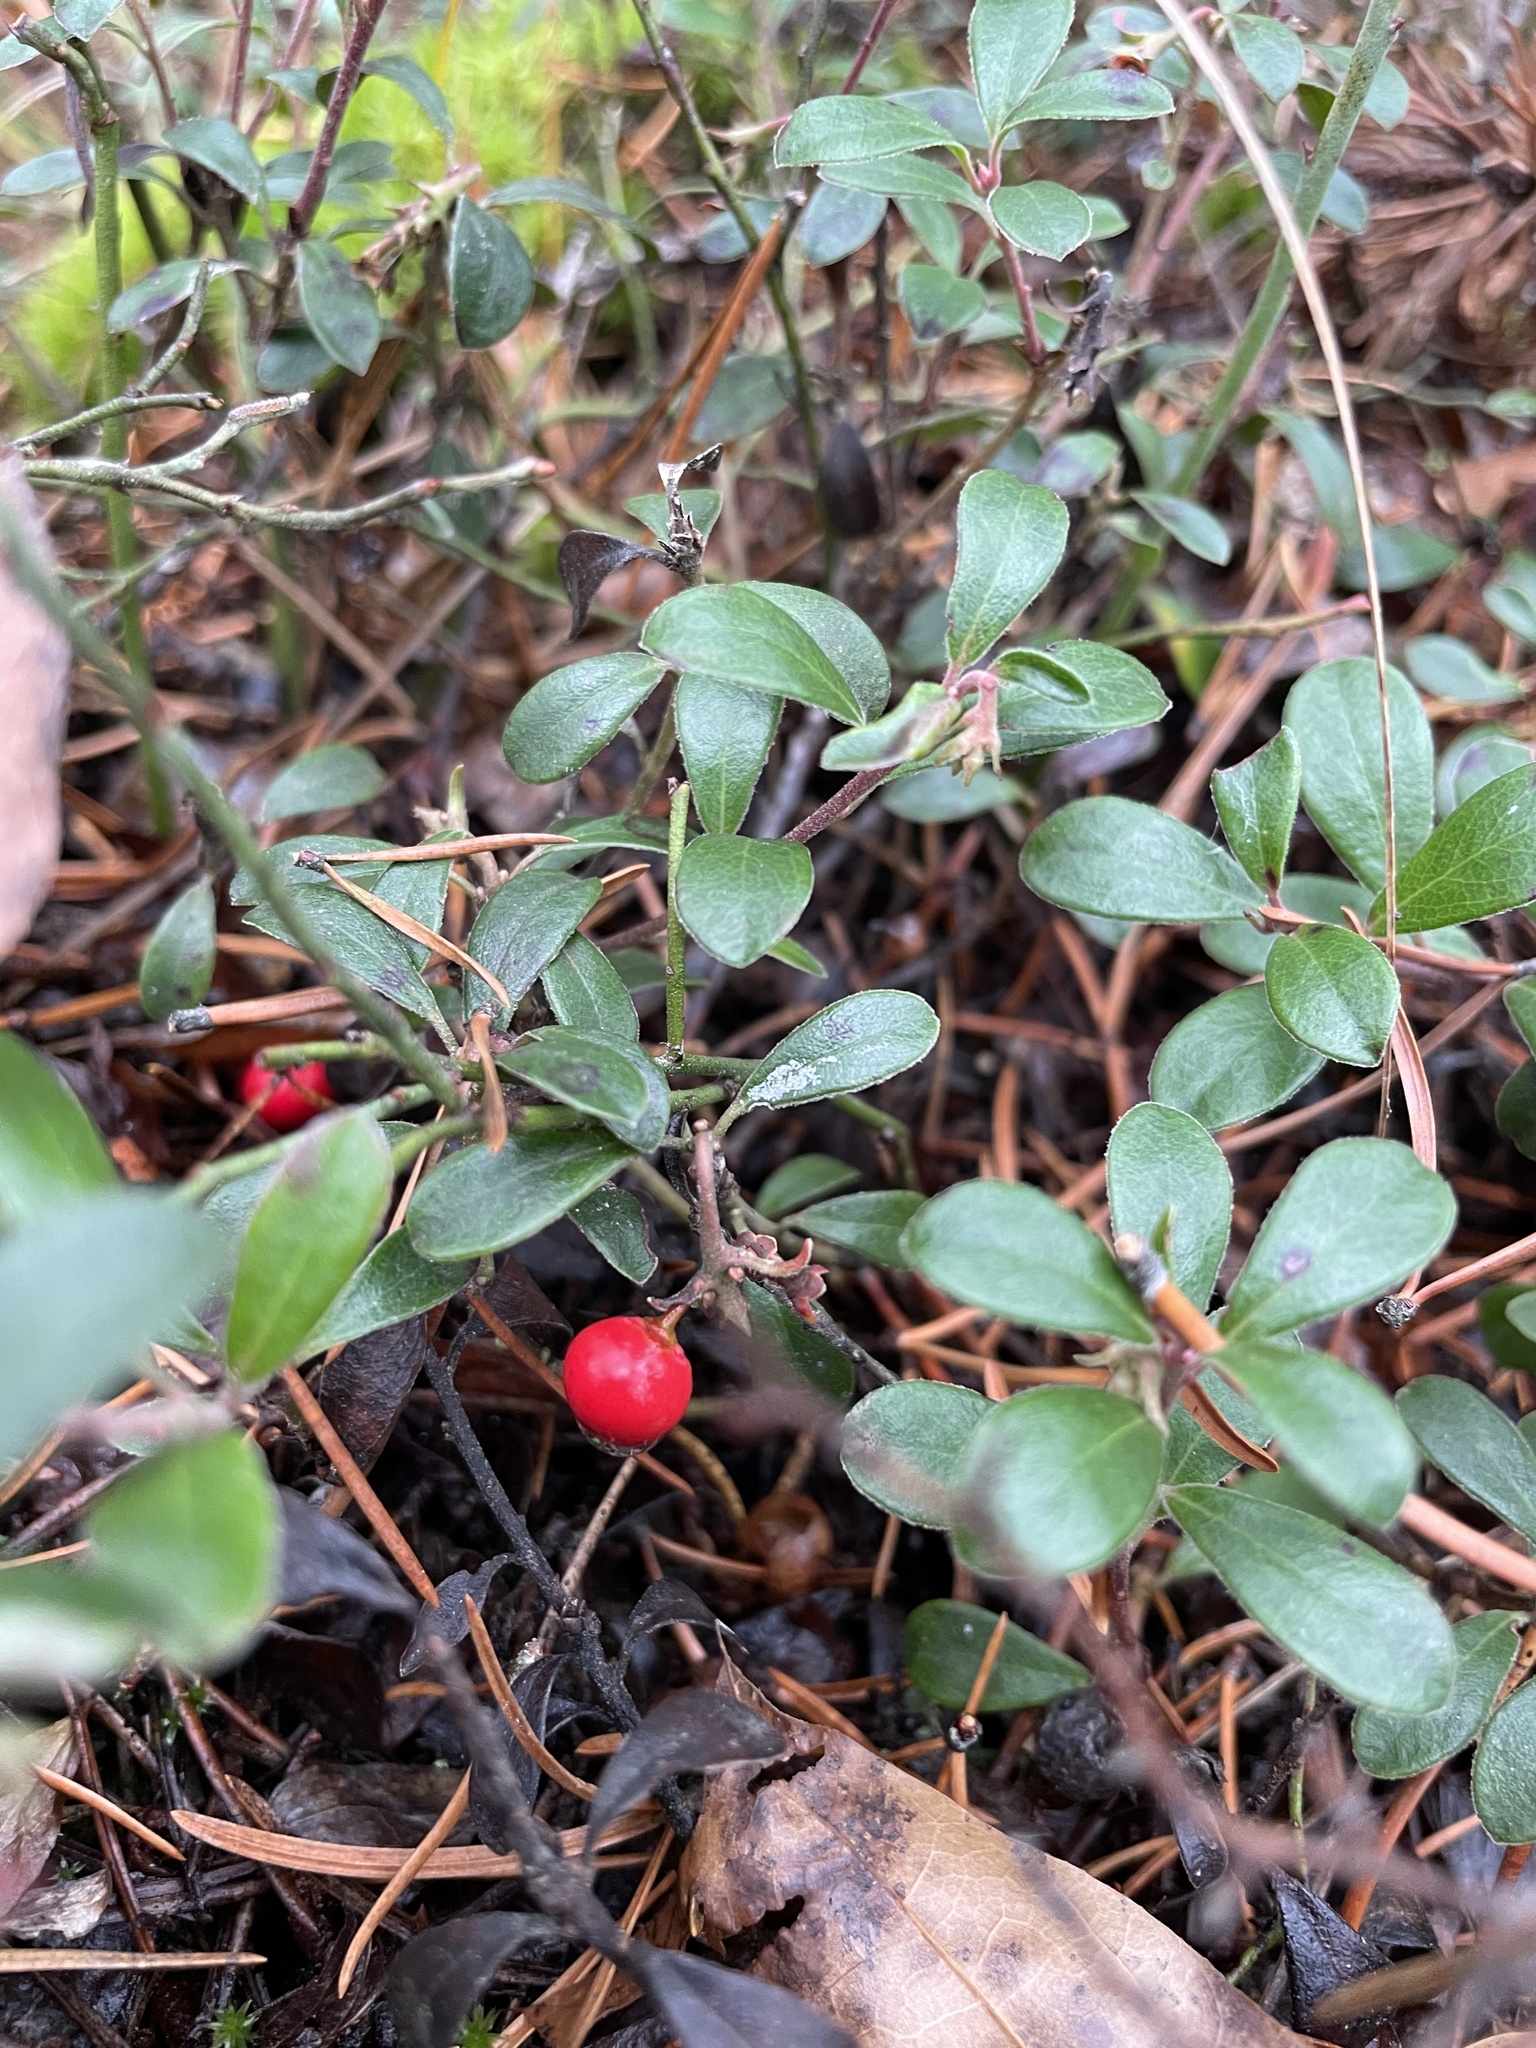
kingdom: Plantae
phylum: Tracheophyta
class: Magnoliopsida
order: Ericales
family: Ericaceae
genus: Arctostaphylos
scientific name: Arctostaphylos uva-ursi
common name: Bearberry
